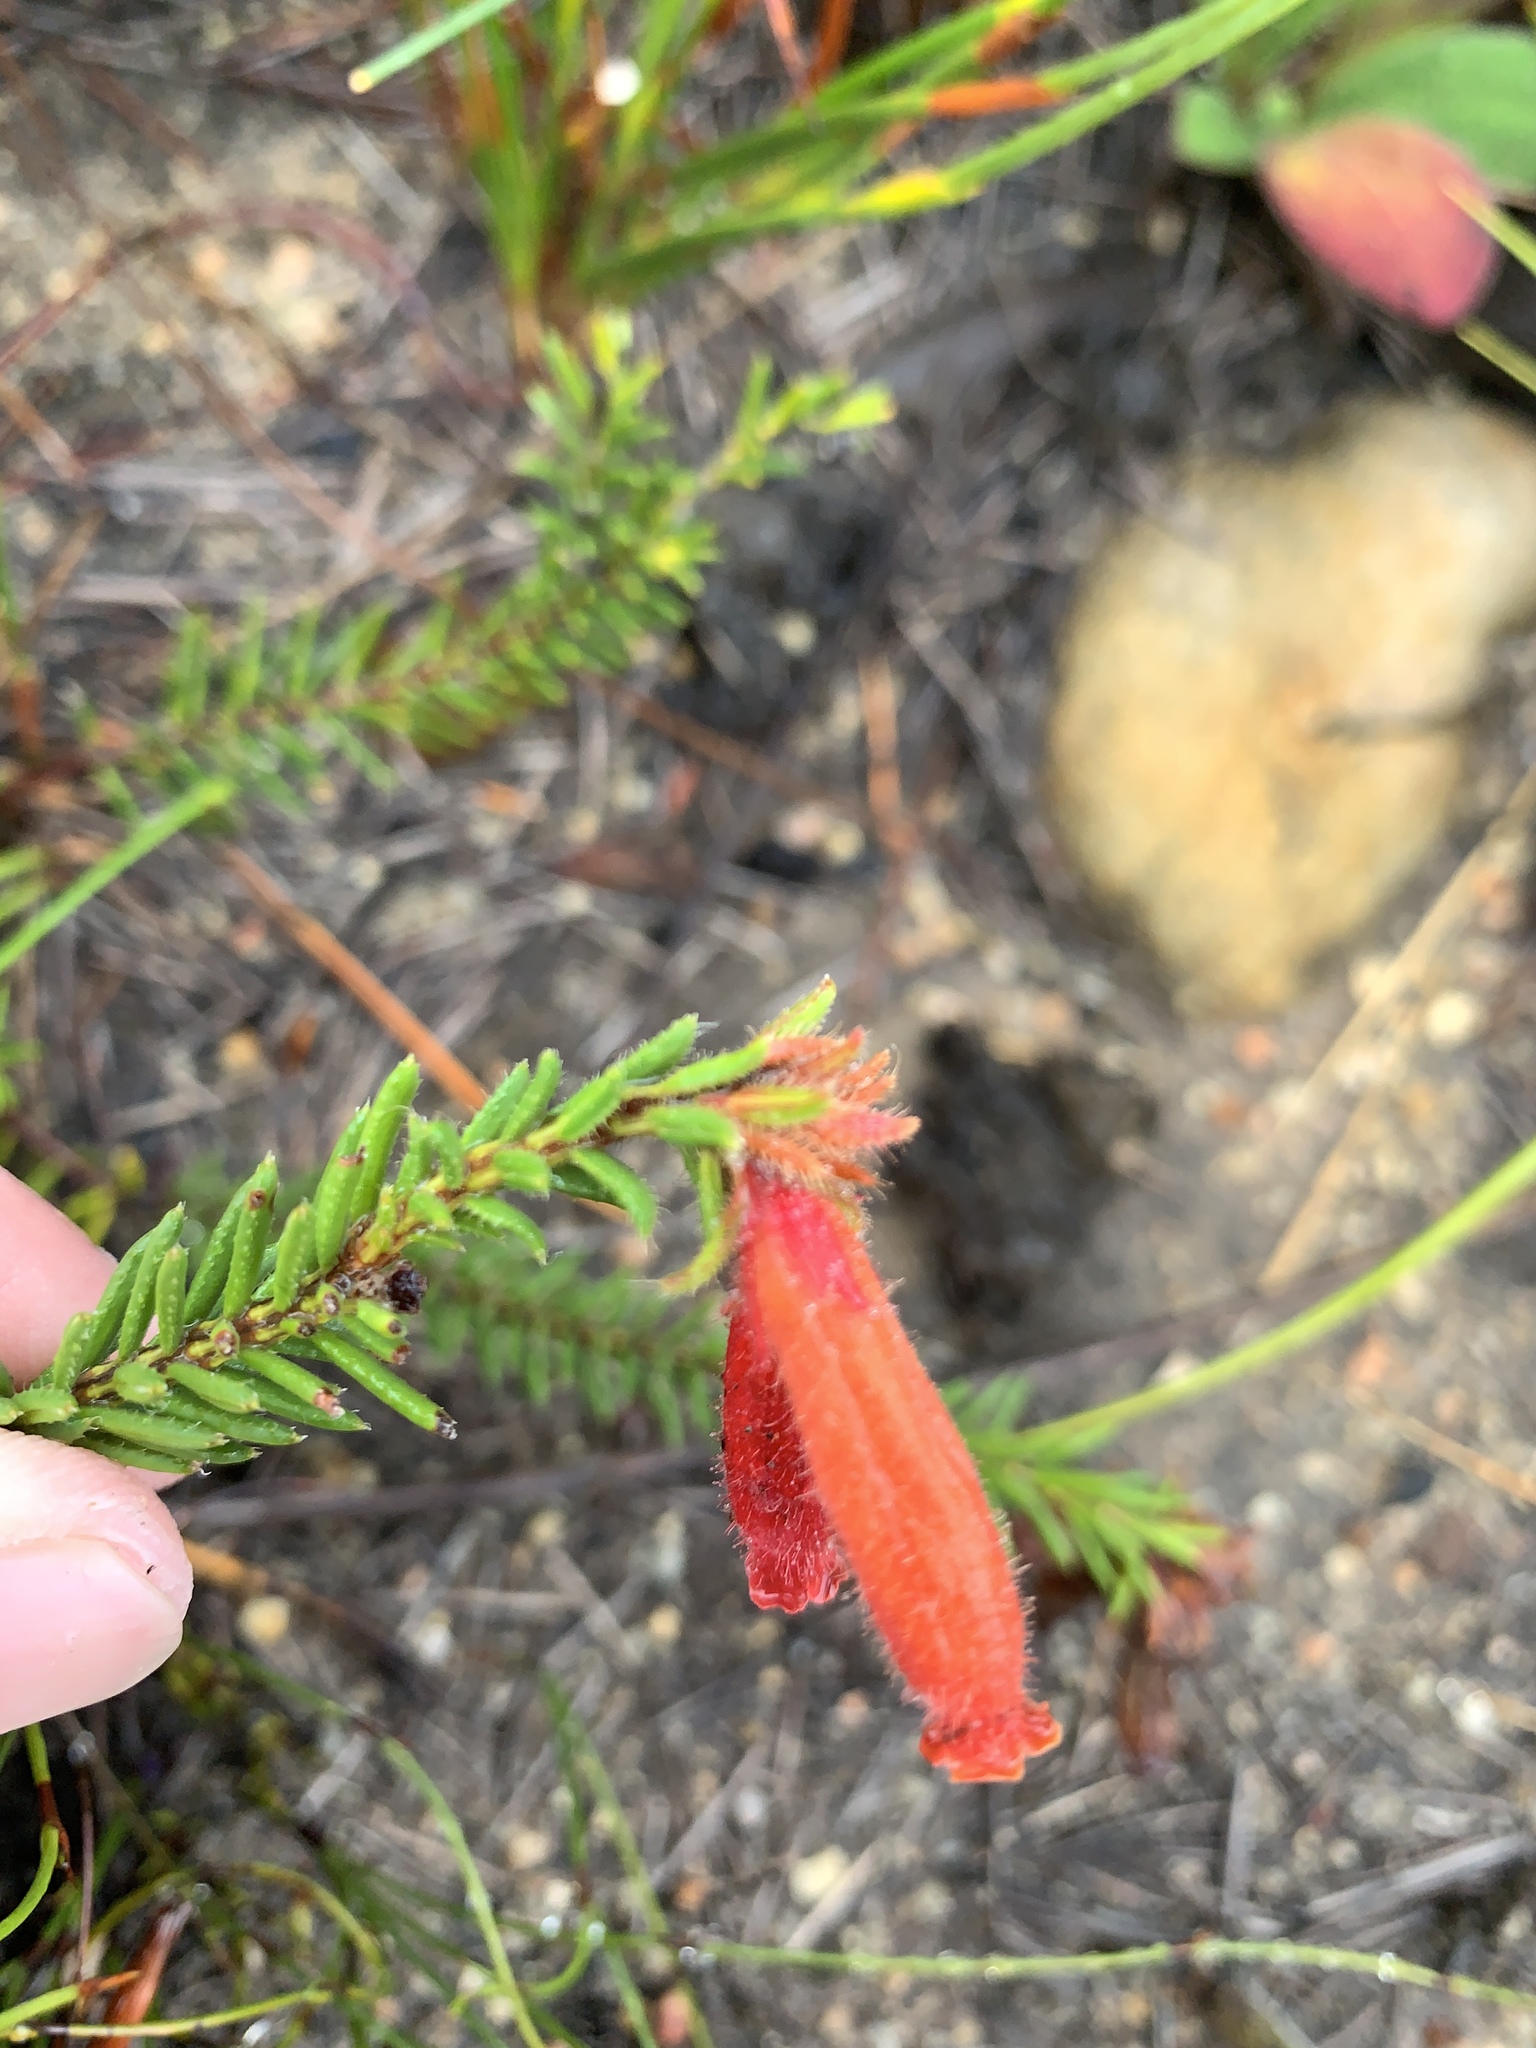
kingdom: Plantae
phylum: Tracheophyta
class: Magnoliopsida
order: Ericales
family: Ericaceae
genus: Erica
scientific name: Erica cerinthoides
